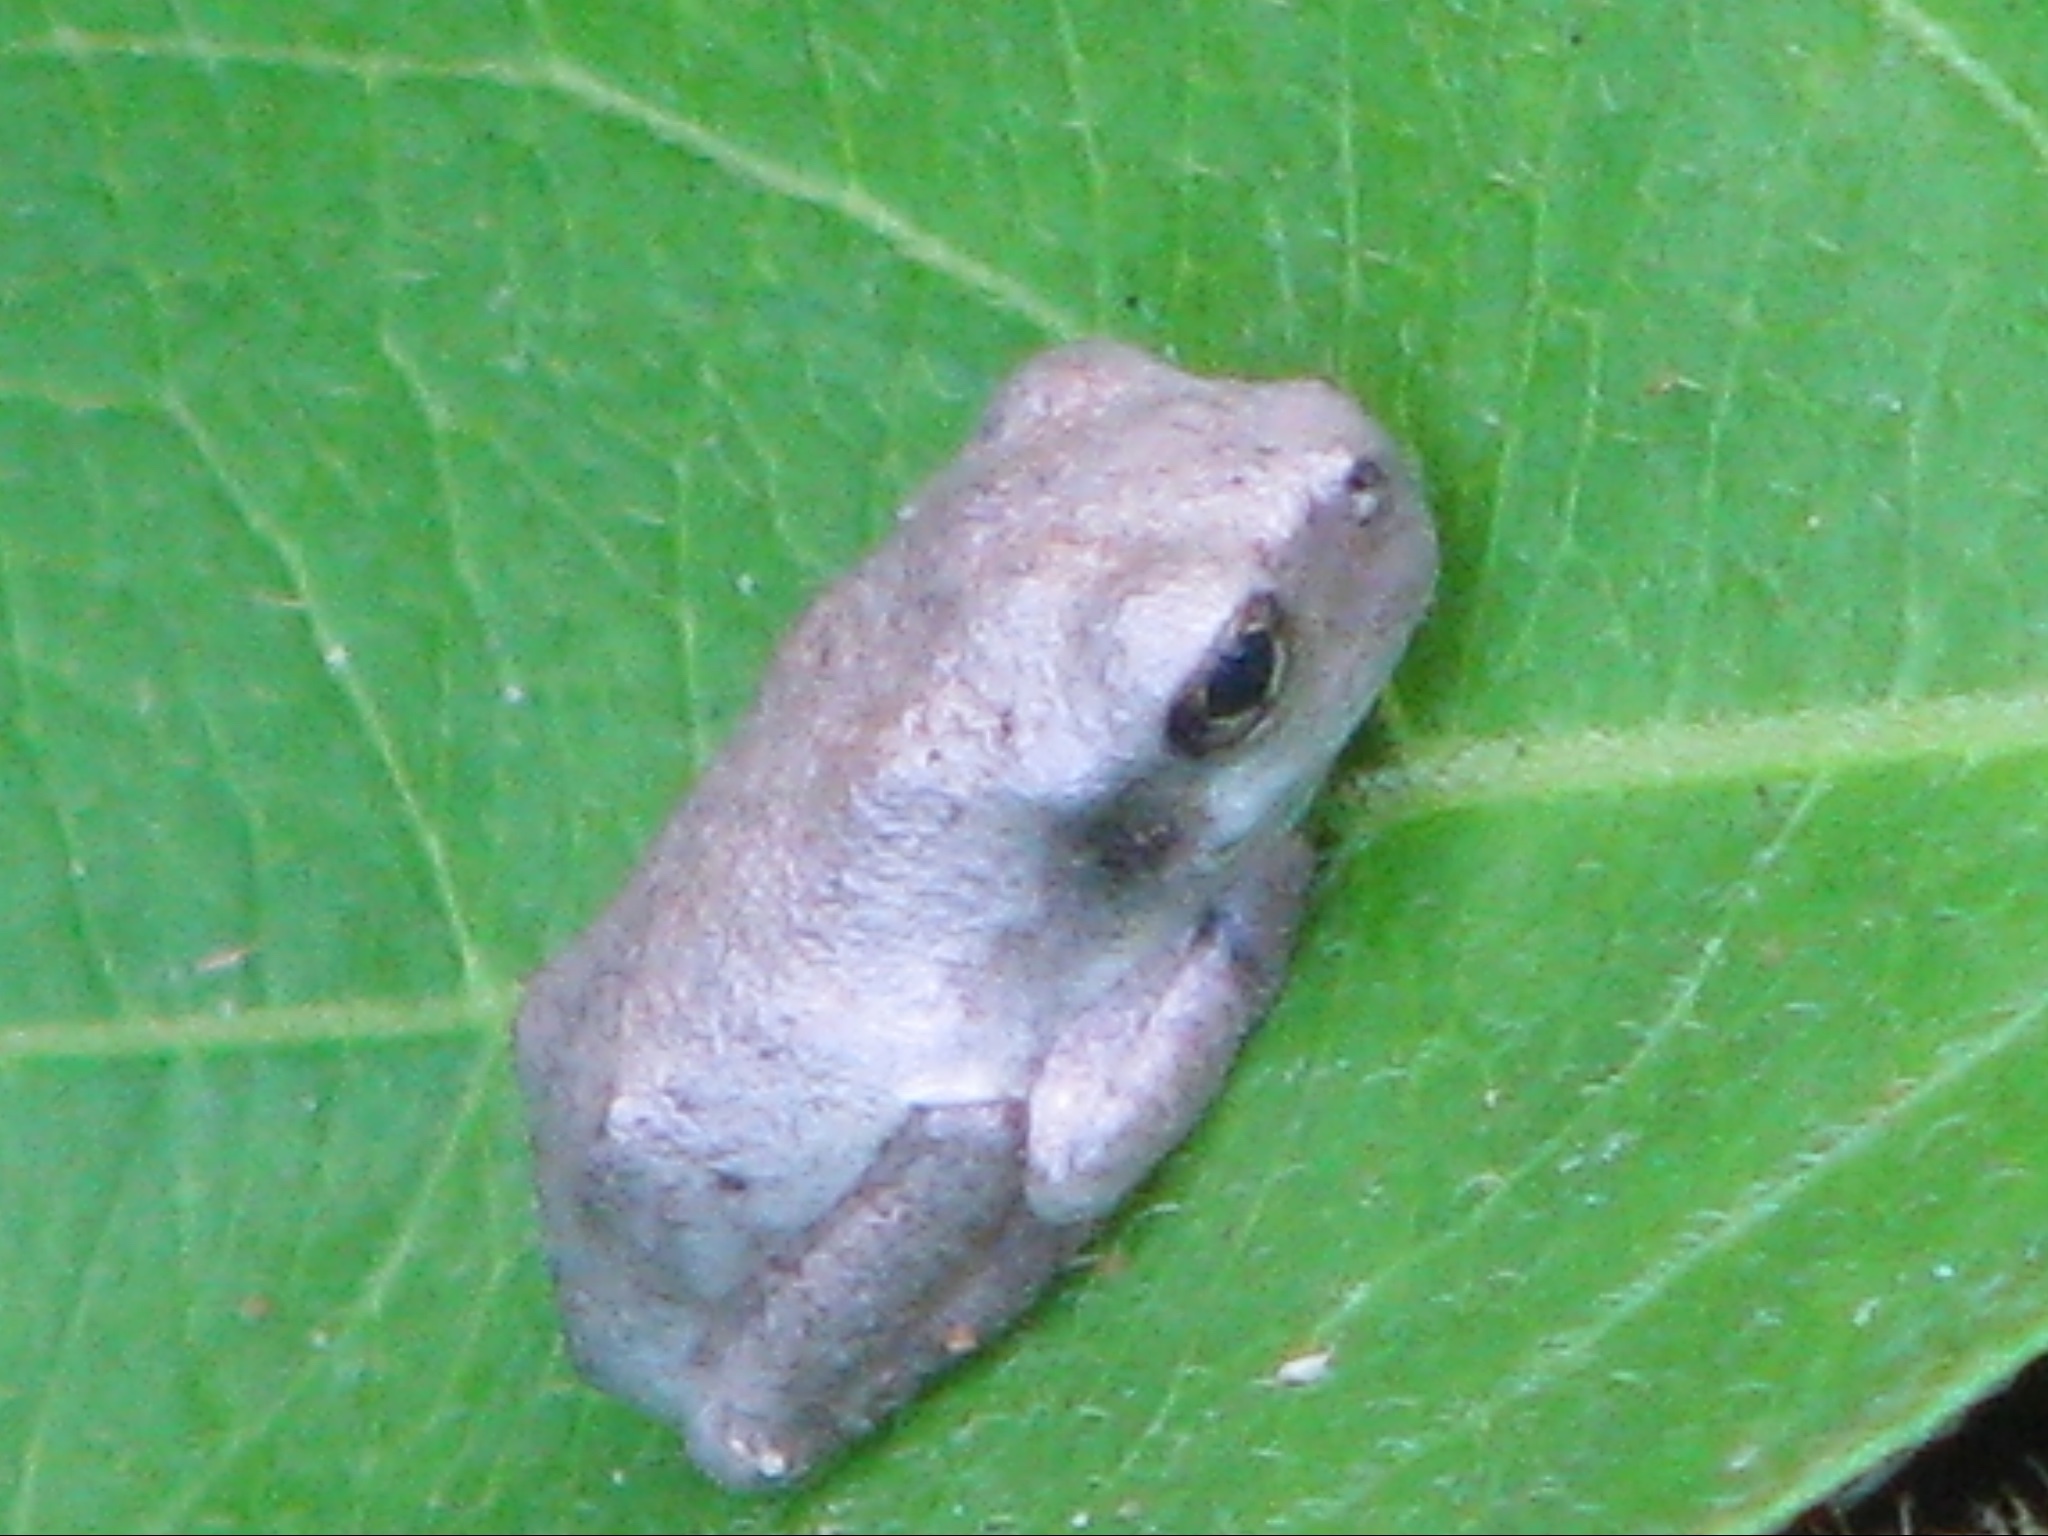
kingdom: Animalia
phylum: Chordata
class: Amphibia
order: Anura
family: Hylidae
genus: Hyla
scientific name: Hyla
